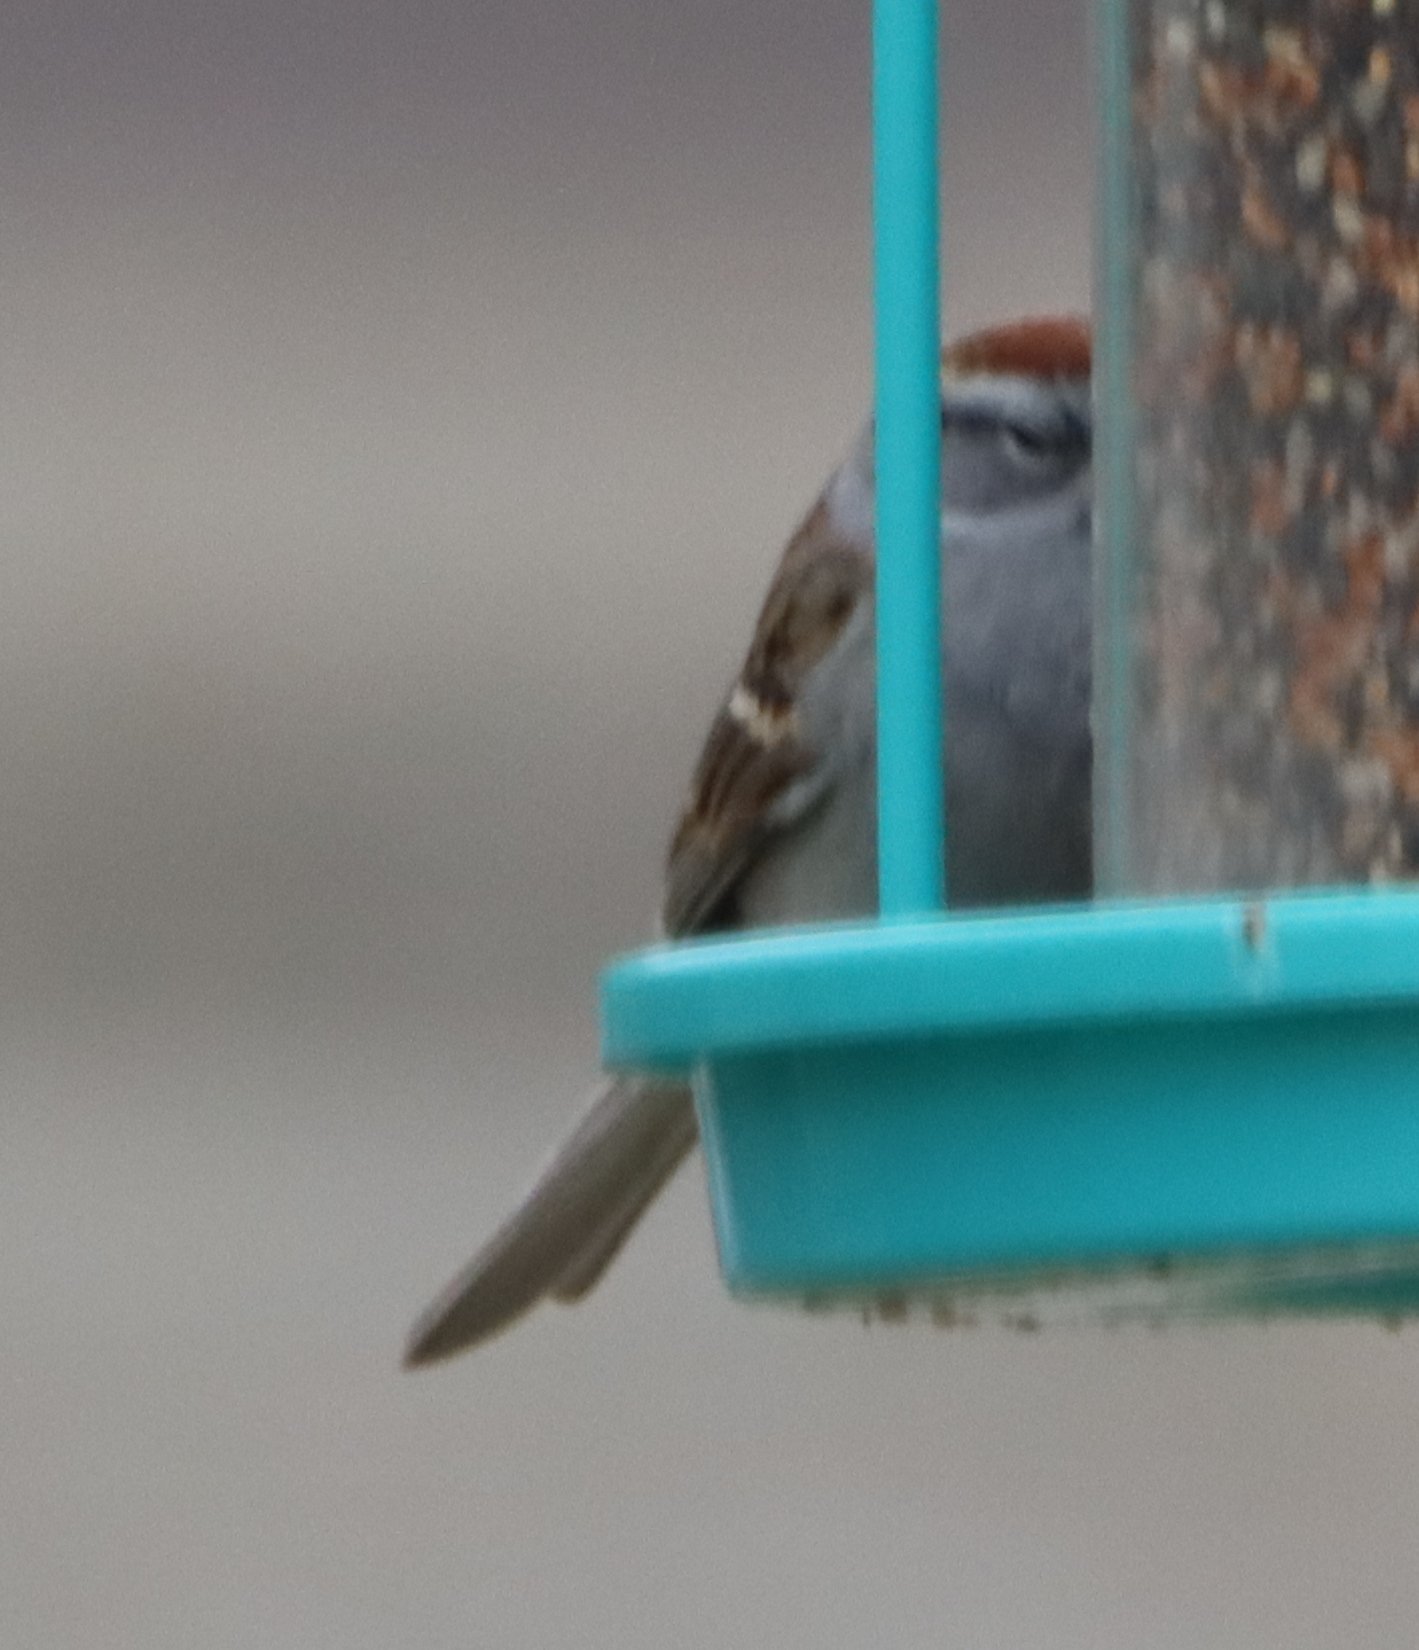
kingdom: Animalia
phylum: Chordata
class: Aves
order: Passeriformes
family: Passerellidae
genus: Spizella
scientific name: Spizella passerina
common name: Chipping sparrow
